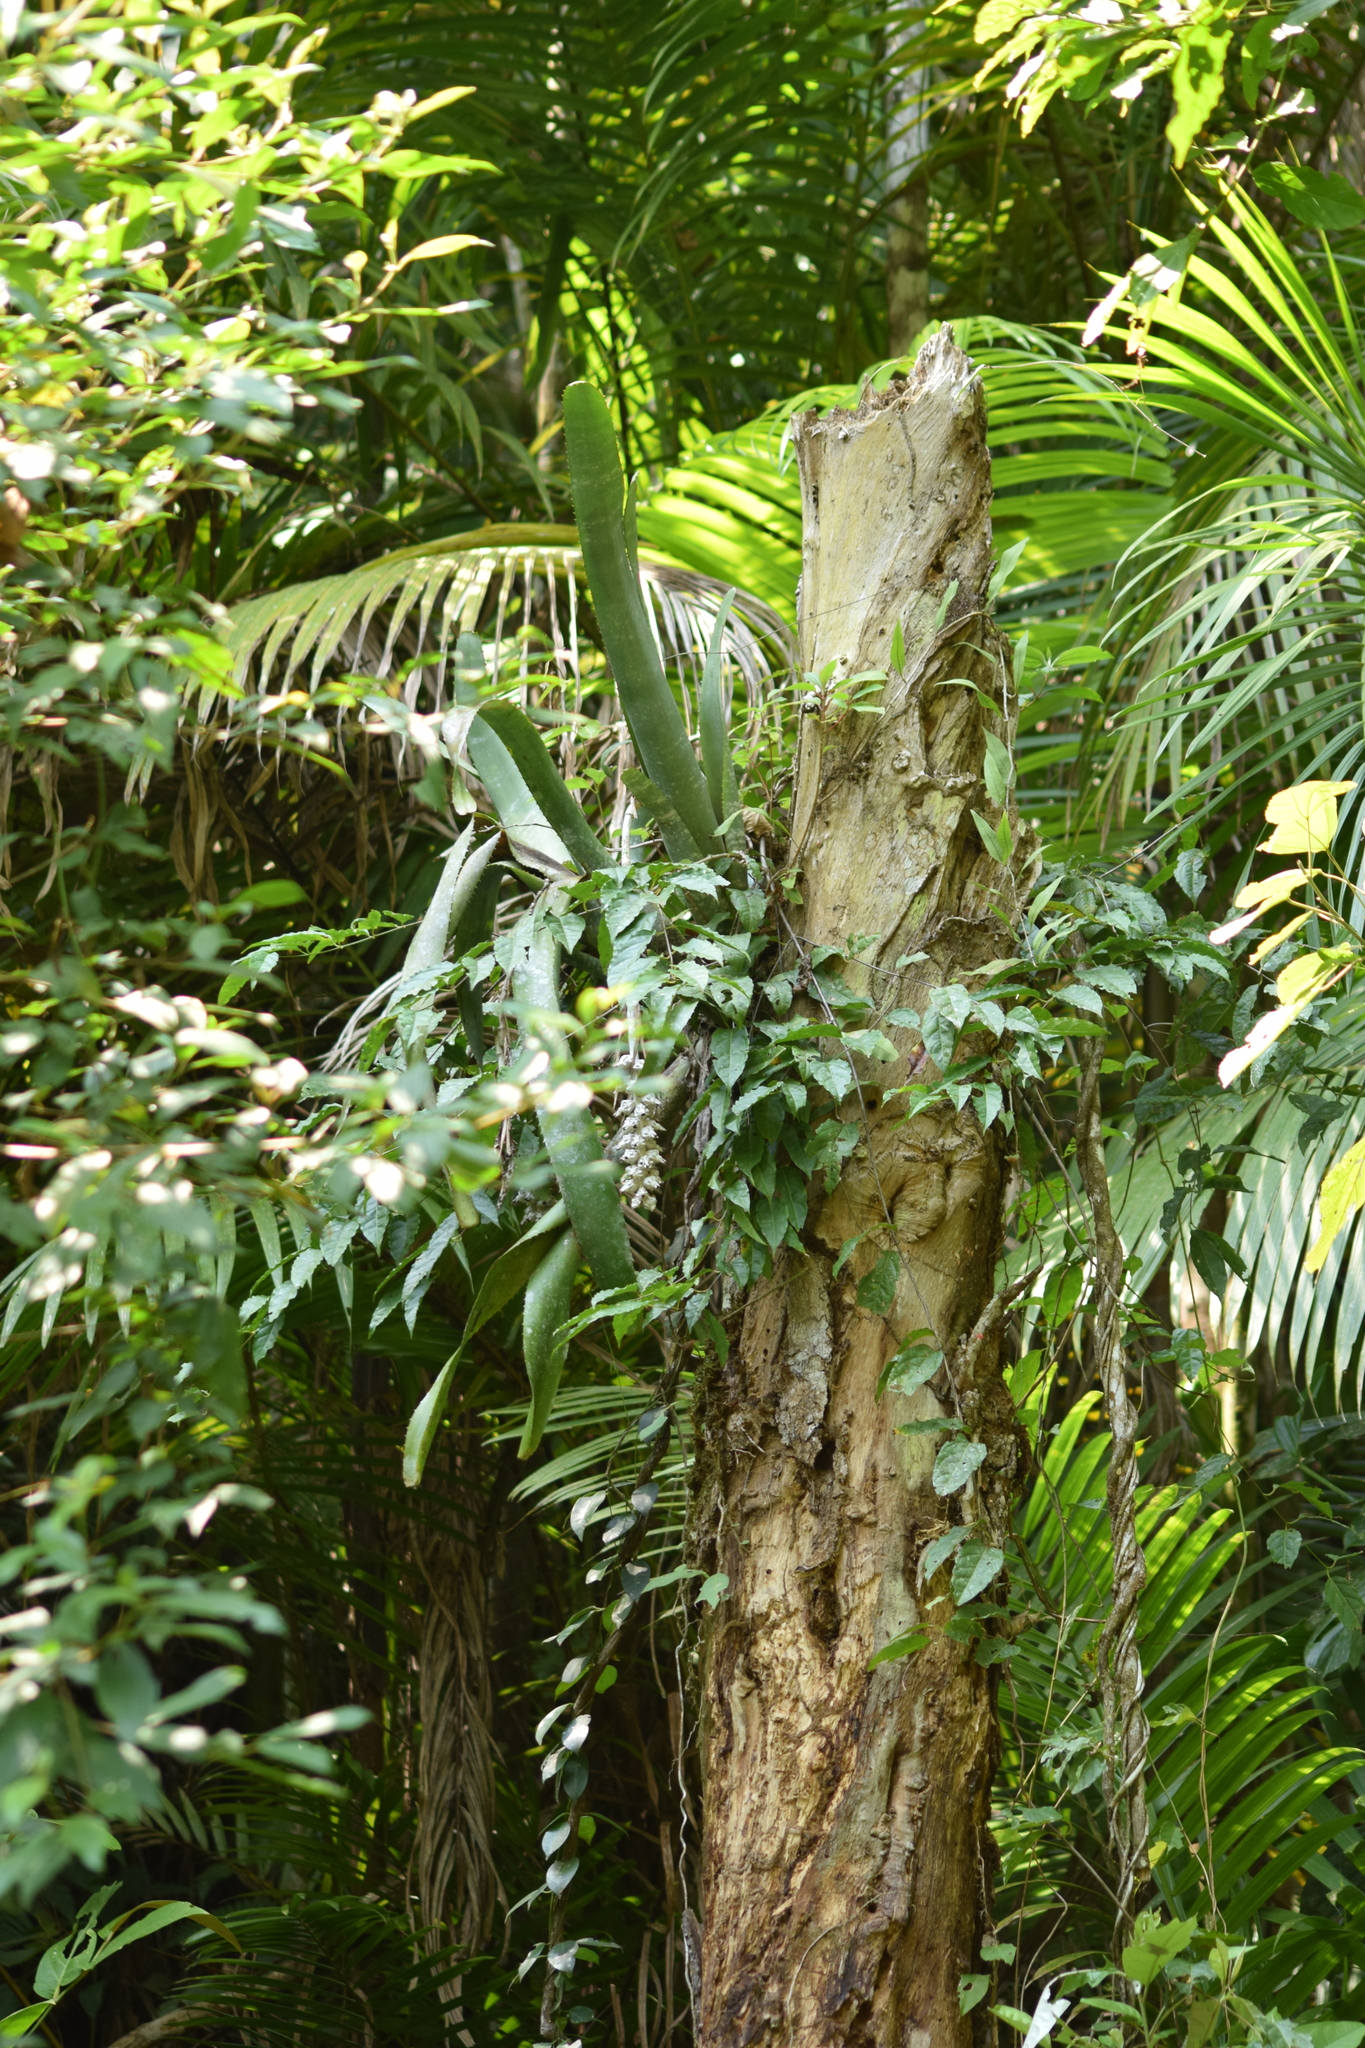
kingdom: Plantae
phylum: Tracheophyta
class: Liliopsida
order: Poales
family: Bromeliaceae
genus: Billbergia
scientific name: Billbergia zebrina
